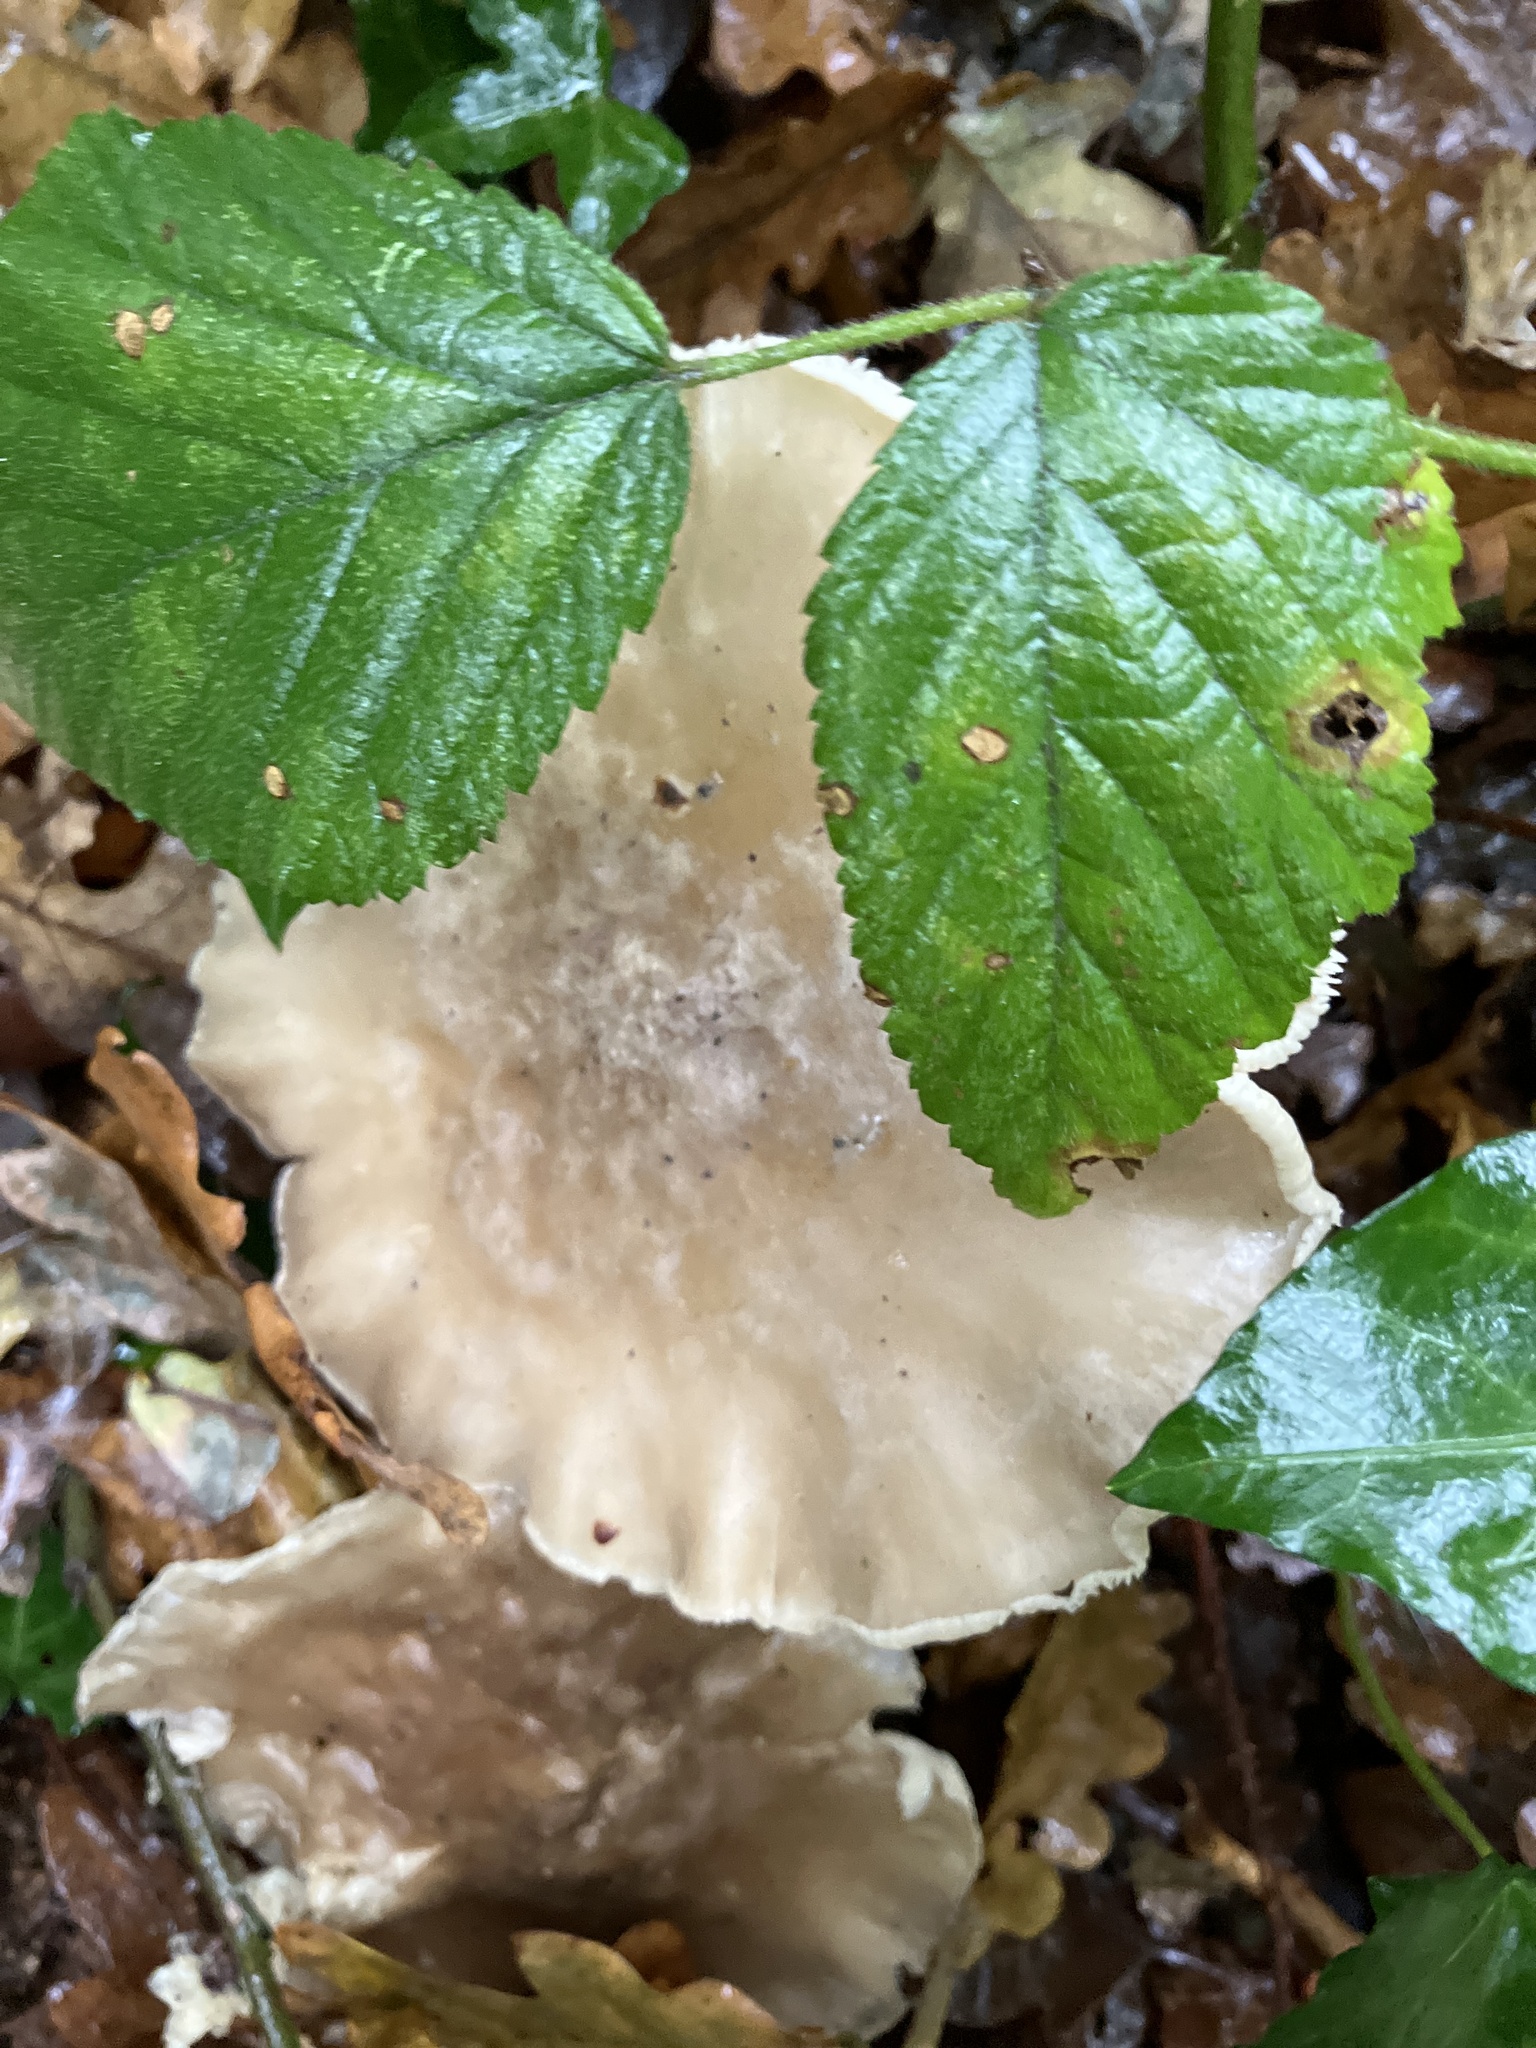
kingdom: Fungi
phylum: Basidiomycota
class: Agaricomycetes
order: Agaricales
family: Tricholomataceae
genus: Clitocybe
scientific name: Clitocybe nebularis
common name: Clouded agaric
